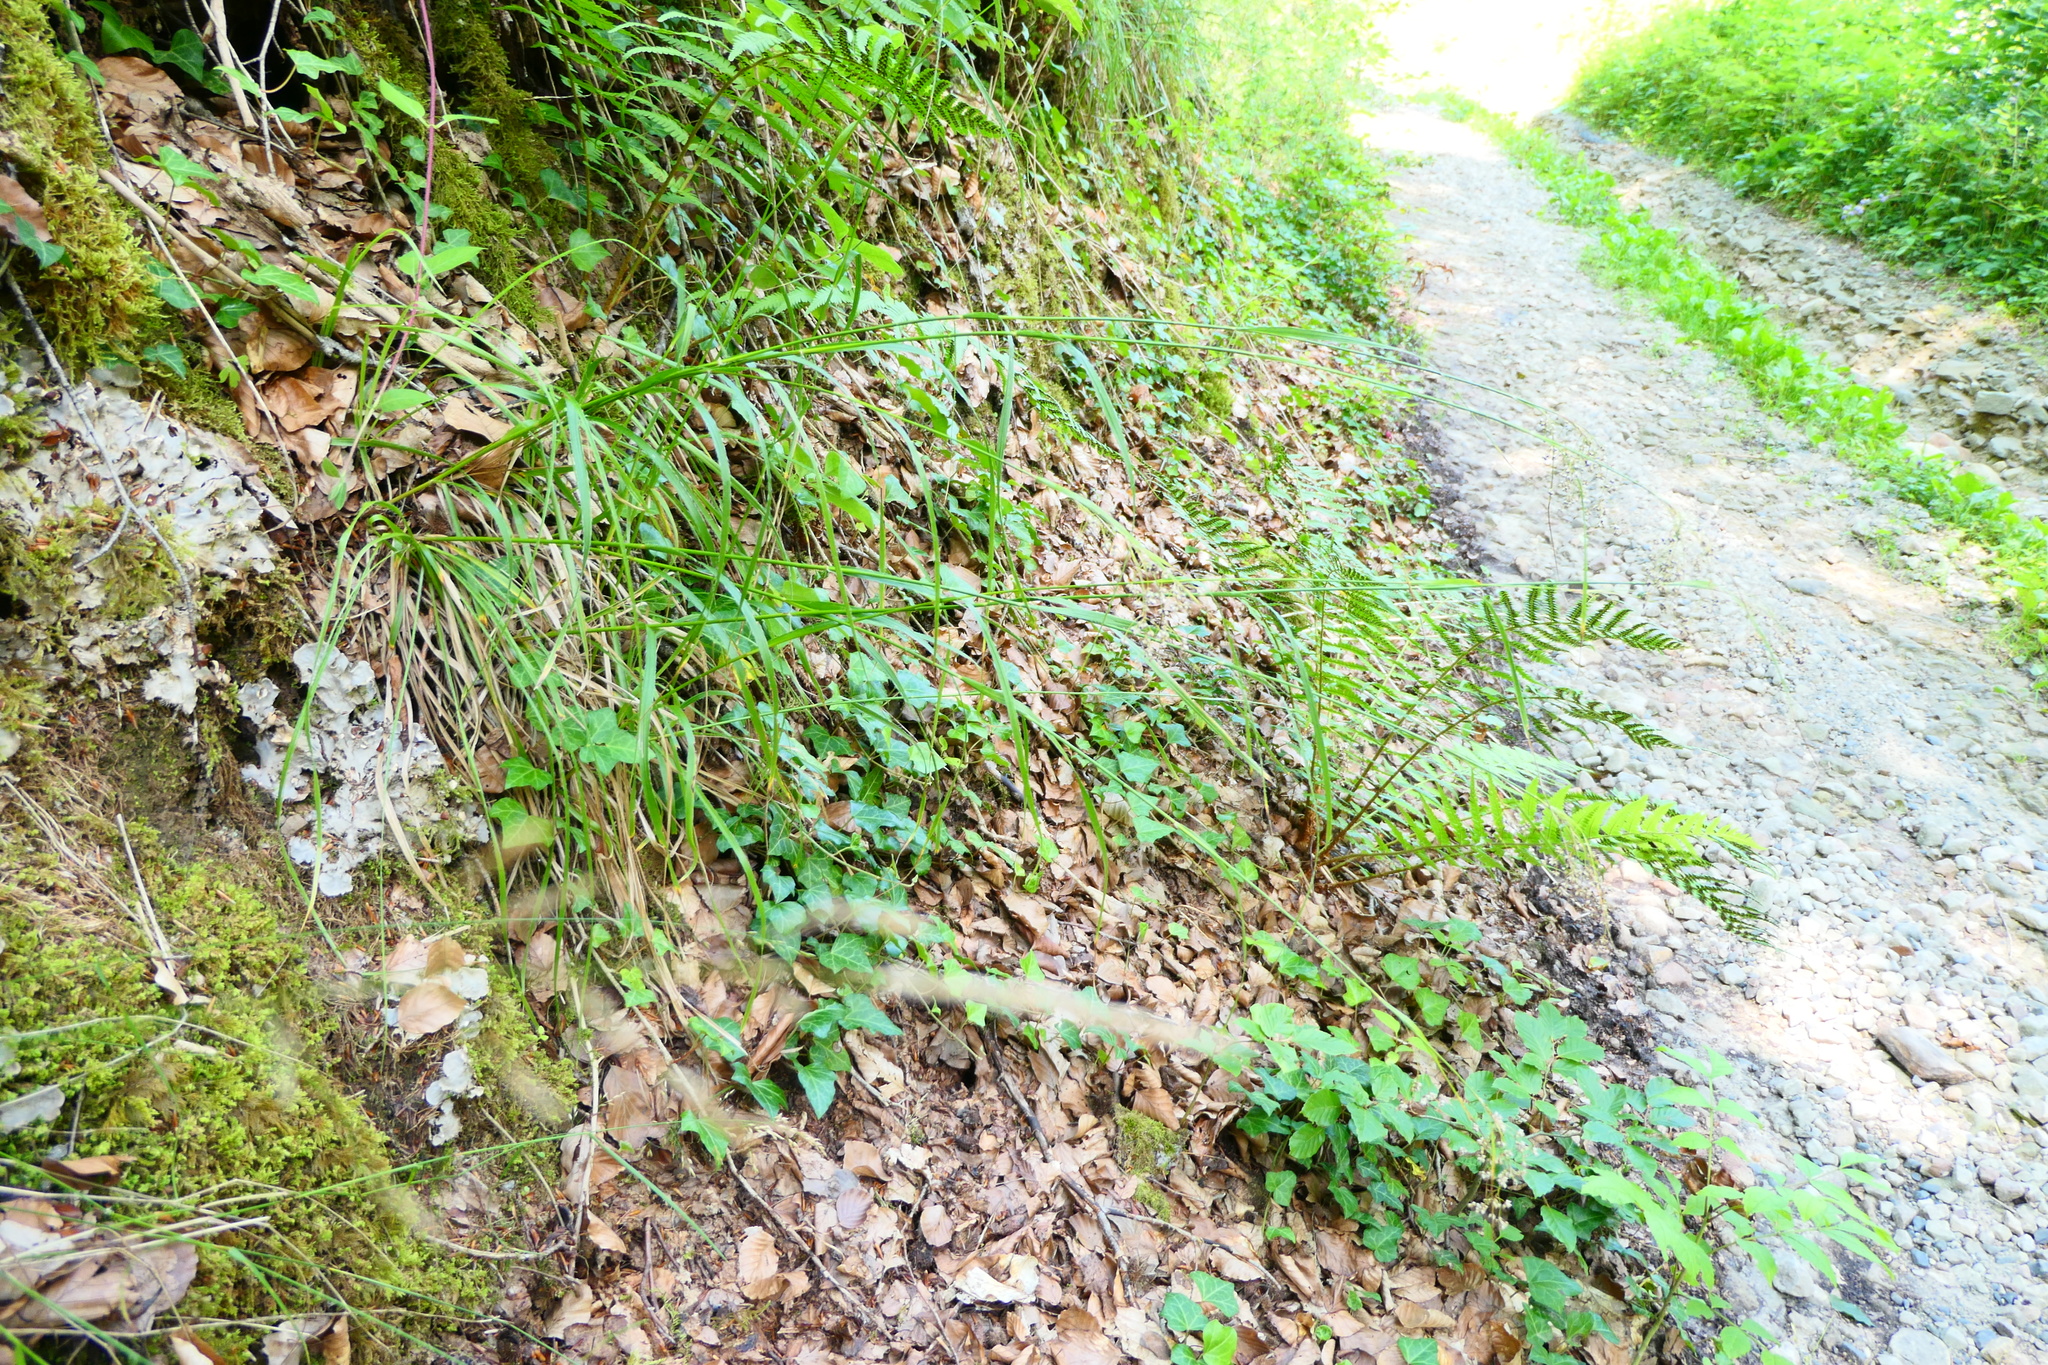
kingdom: Plantae
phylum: Tracheophyta
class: Liliopsida
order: Poales
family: Juncaceae
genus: Luzula
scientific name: Luzula luzuloides
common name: White wood-rush
